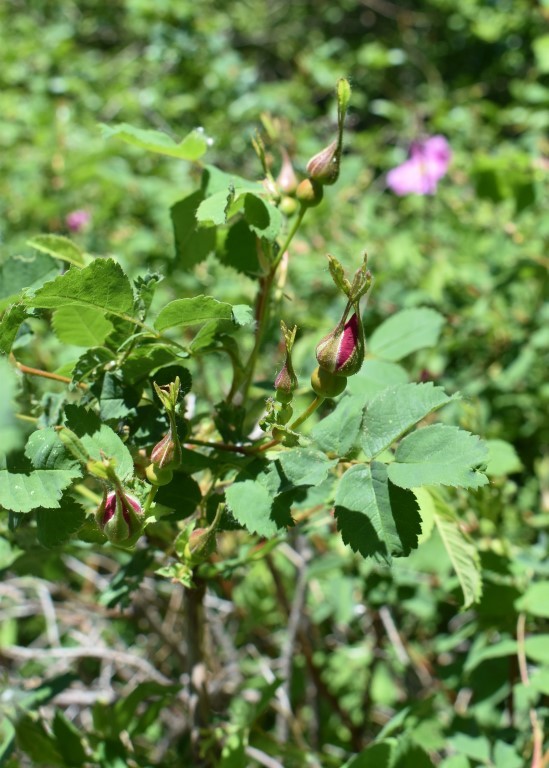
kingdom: Plantae
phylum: Tracheophyta
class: Magnoliopsida
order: Rosales
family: Rosaceae
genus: Rosa
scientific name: Rosa nutkana
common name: Nootka rose
